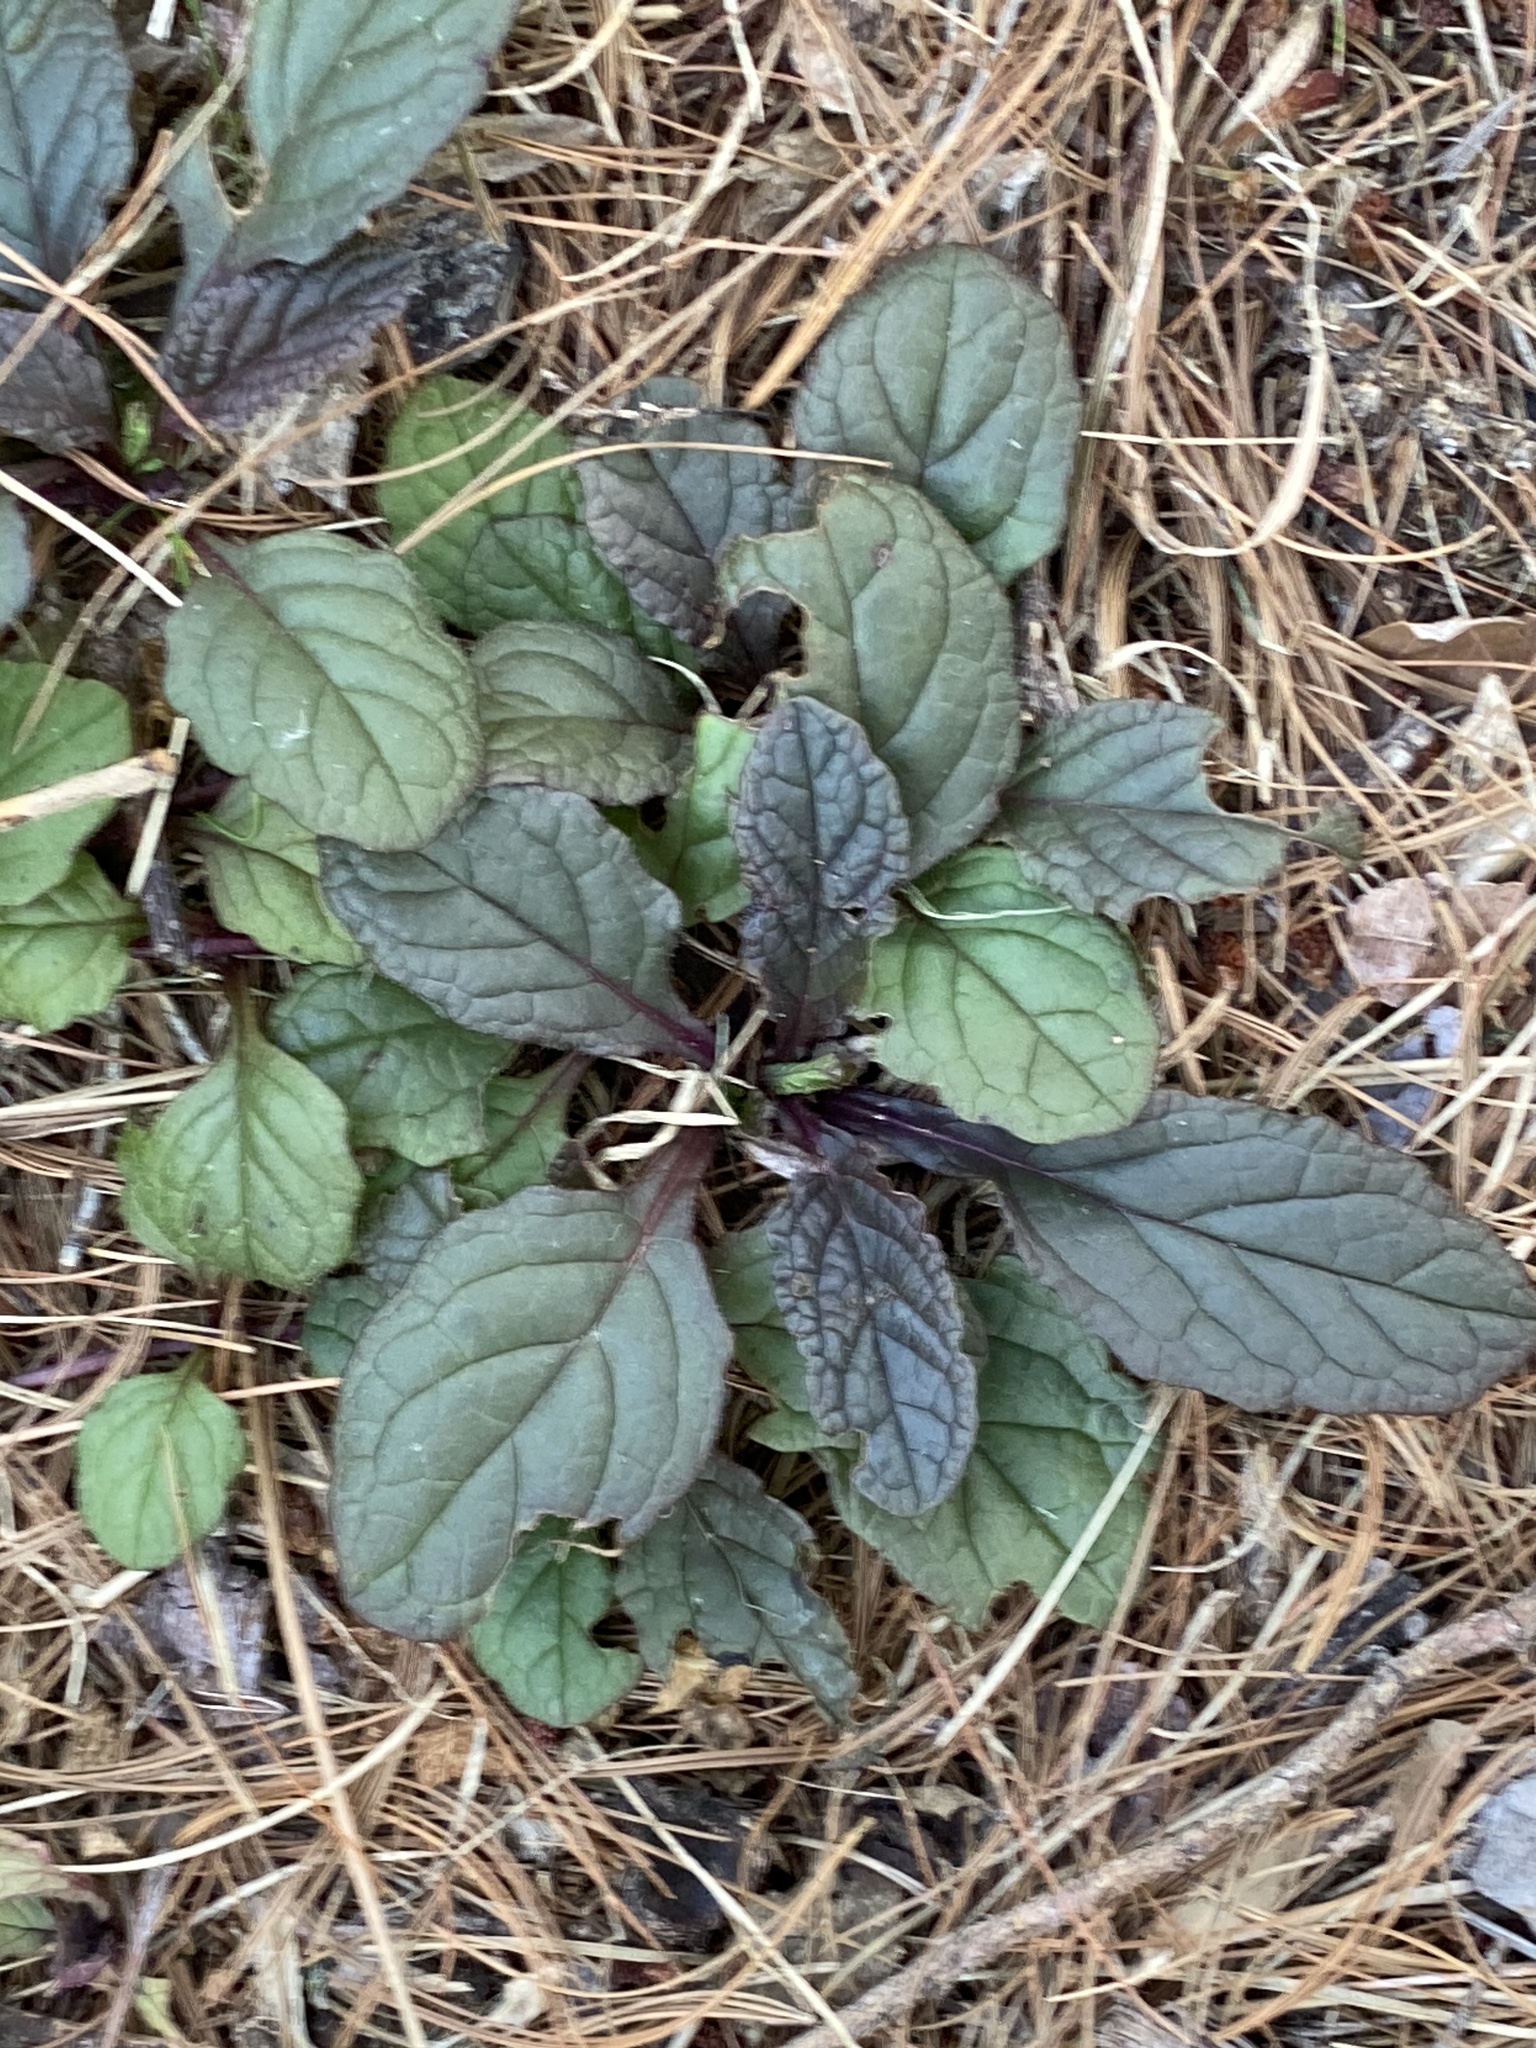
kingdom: Plantae
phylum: Tracheophyta
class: Magnoliopsida
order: Lamiales
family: Lamiaceae
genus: Ajuga
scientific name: Ajuga reptans
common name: Bugle
